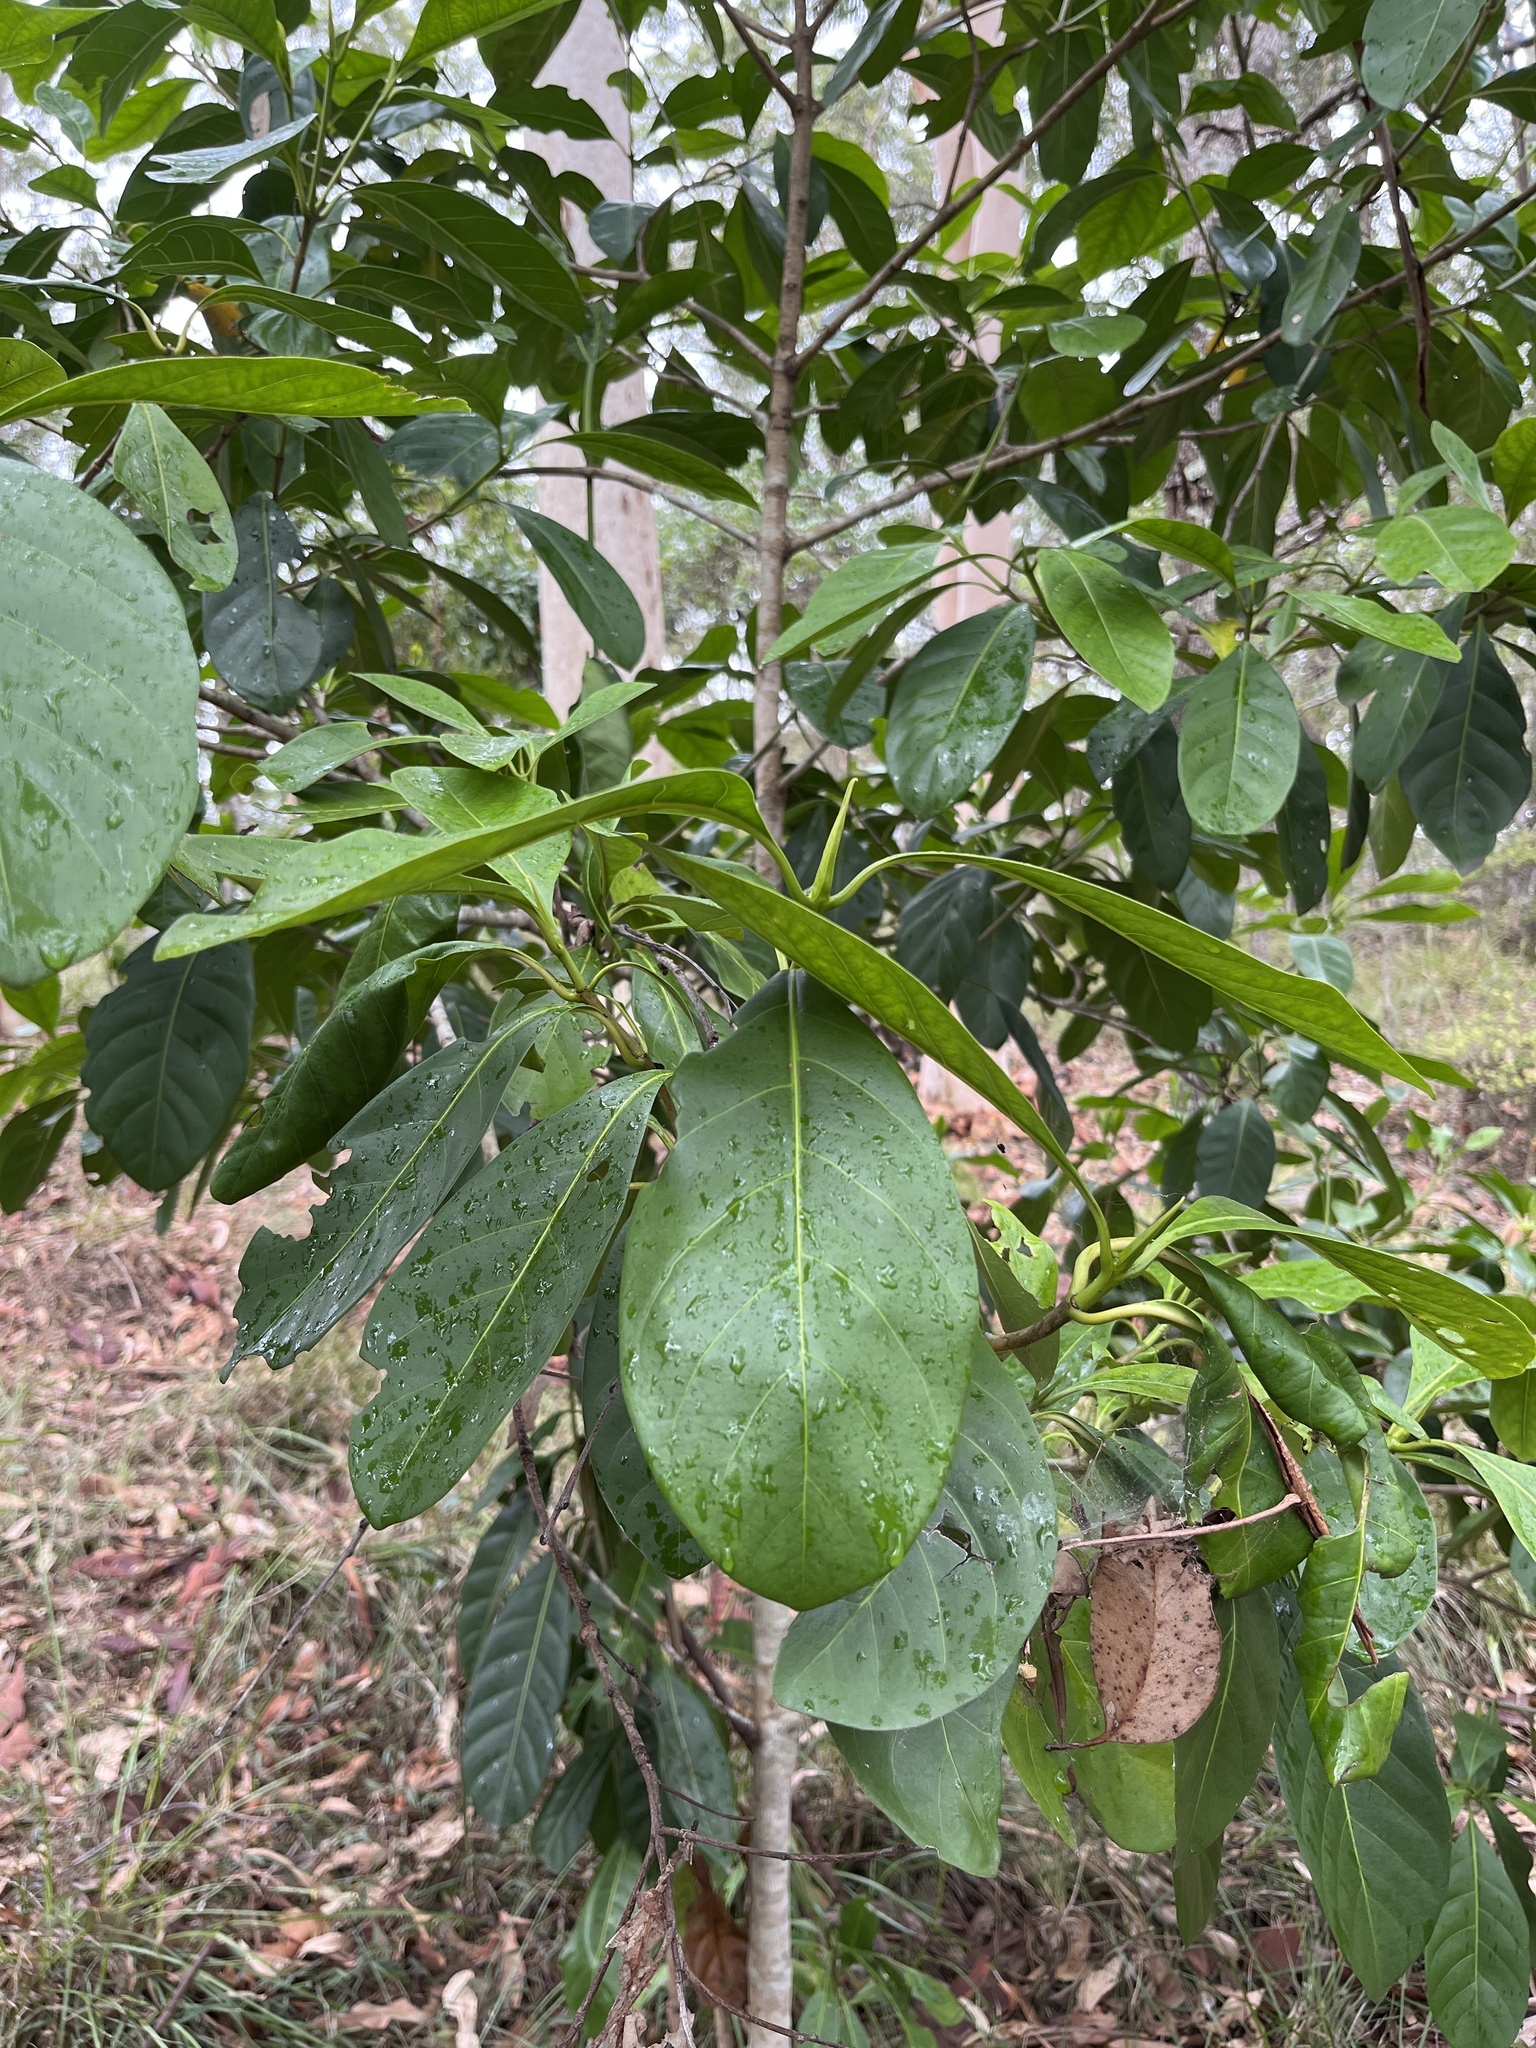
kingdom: Plantae
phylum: Tracheophyta
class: Magnoliopsida
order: Gentianales
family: Rubiaceae
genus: Atractocarpus
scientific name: Atractocarpus fitzalanii
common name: Randia
